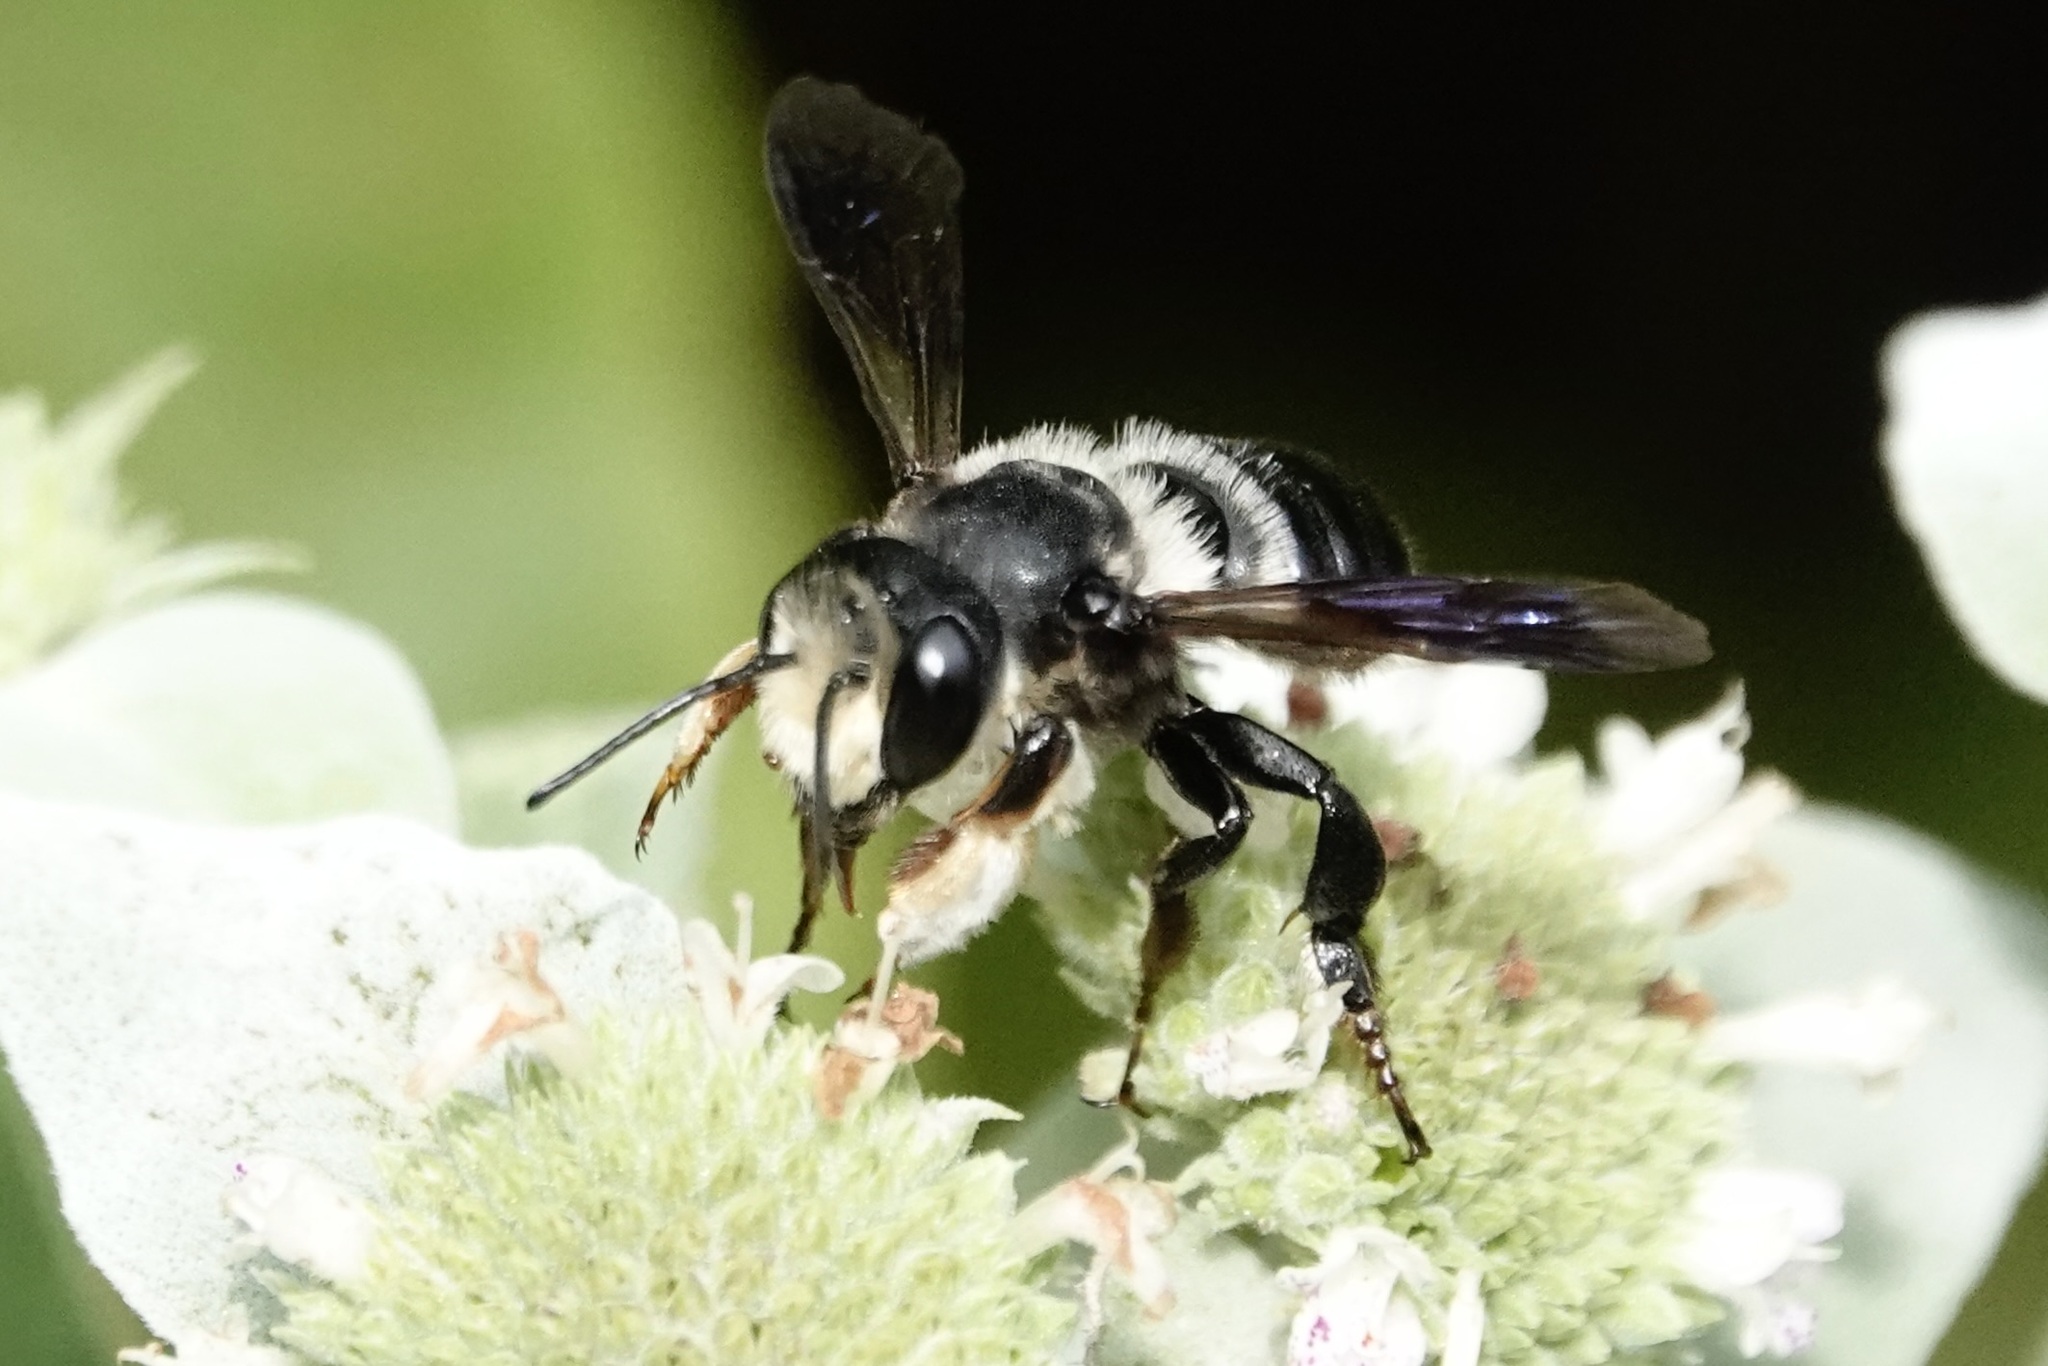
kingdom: Animalia
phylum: Arthropoda
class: Insecta
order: Hymenoptera
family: Megachilidae
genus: Megachile
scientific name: Megachile xylocopoides
